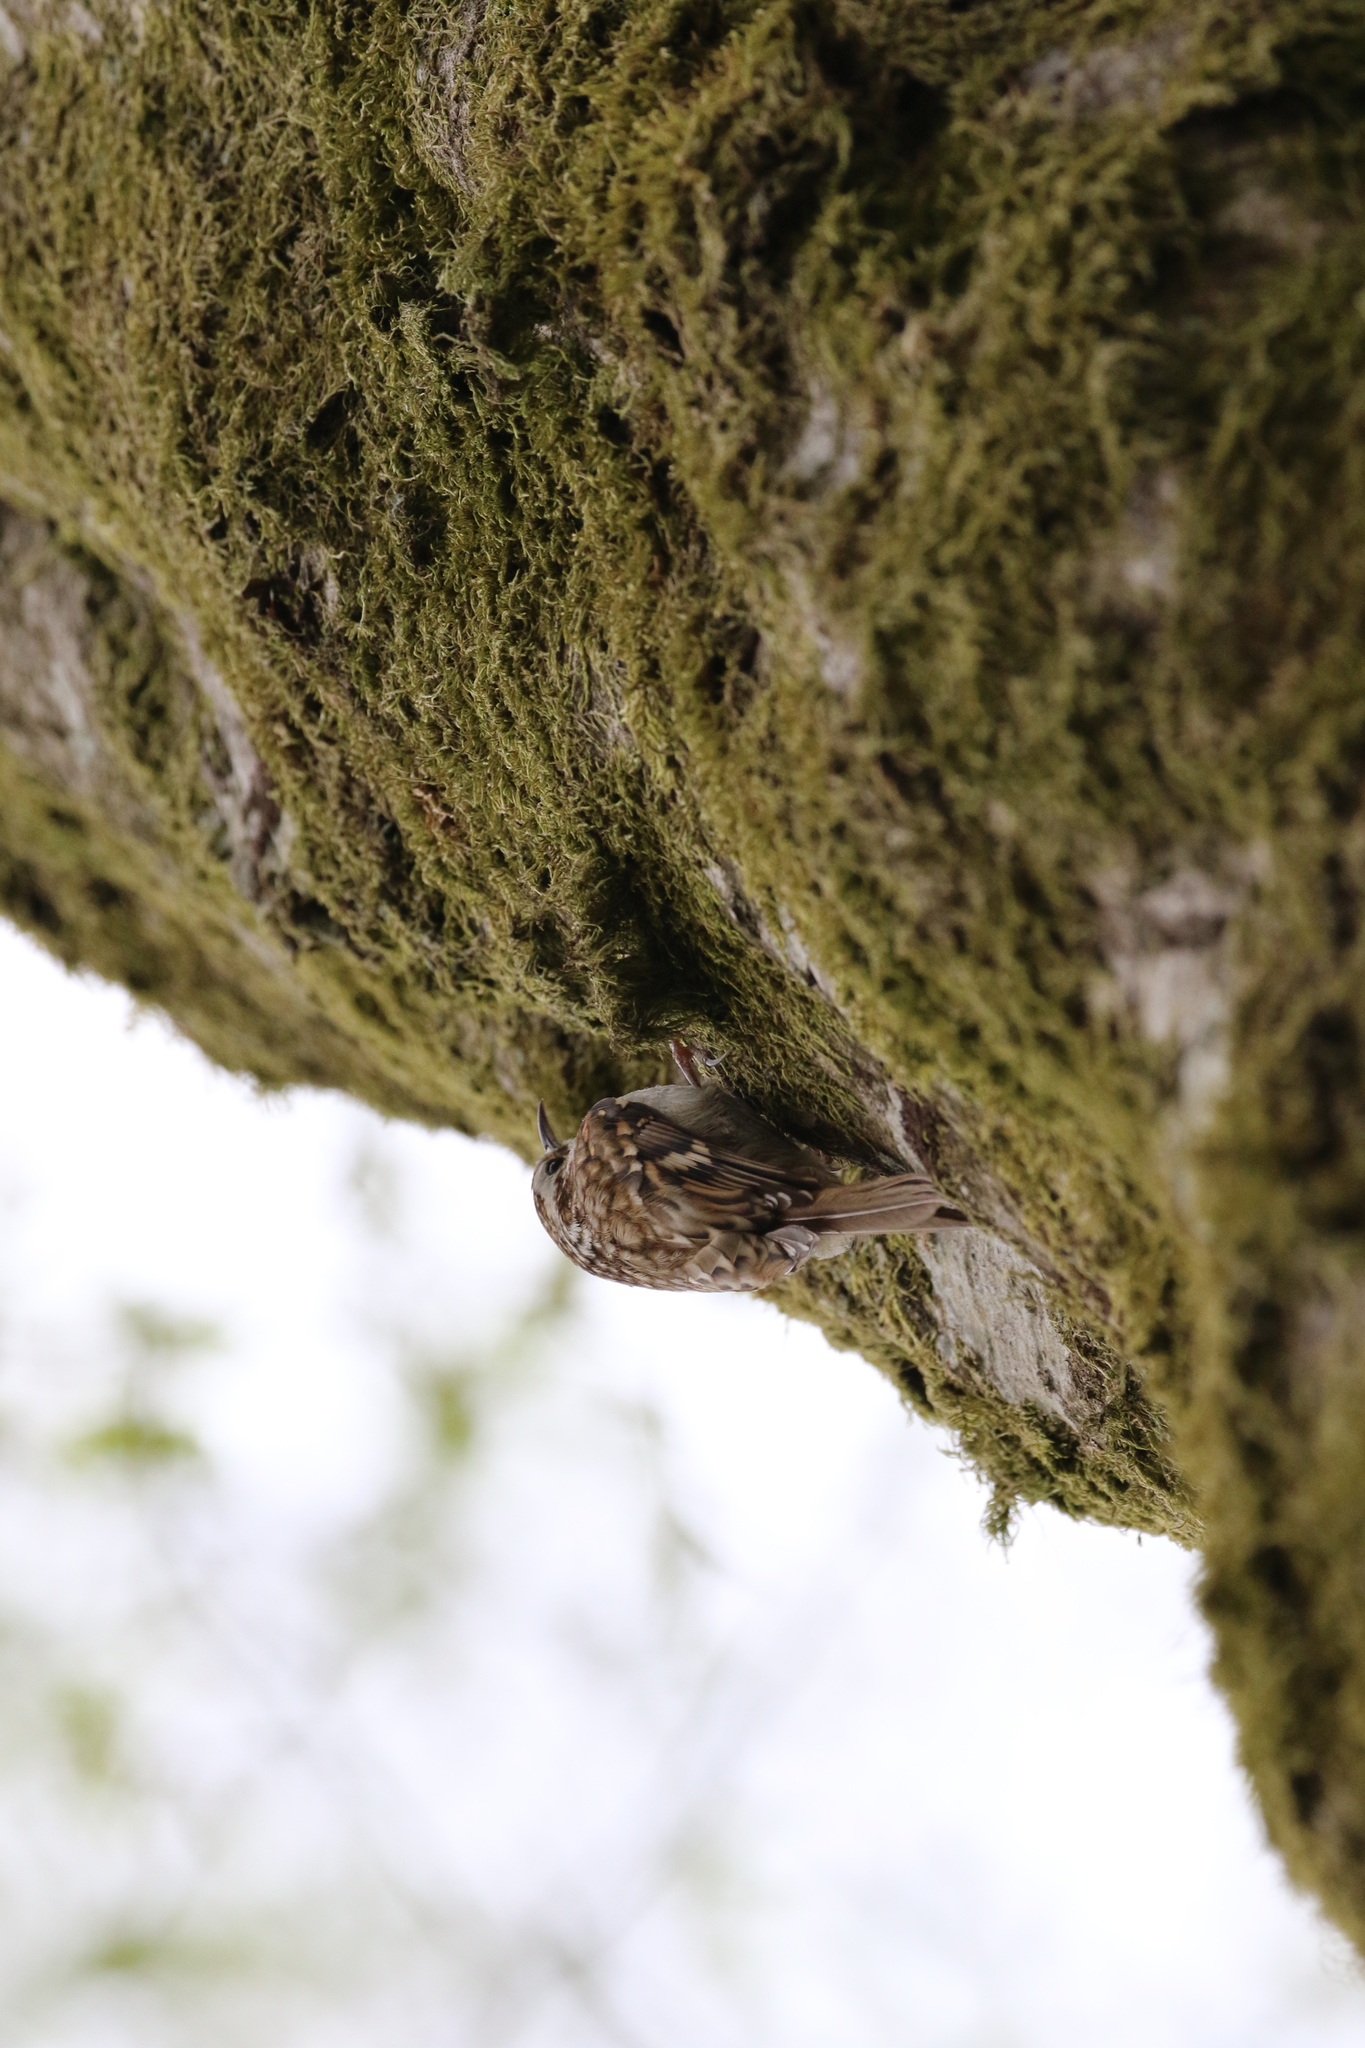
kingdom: Animalia
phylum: Chordata
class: Aves
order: Passeriformes
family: Certhiidae
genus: Certhia
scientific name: Certhia familiaris
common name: Eurasian treecreeper
